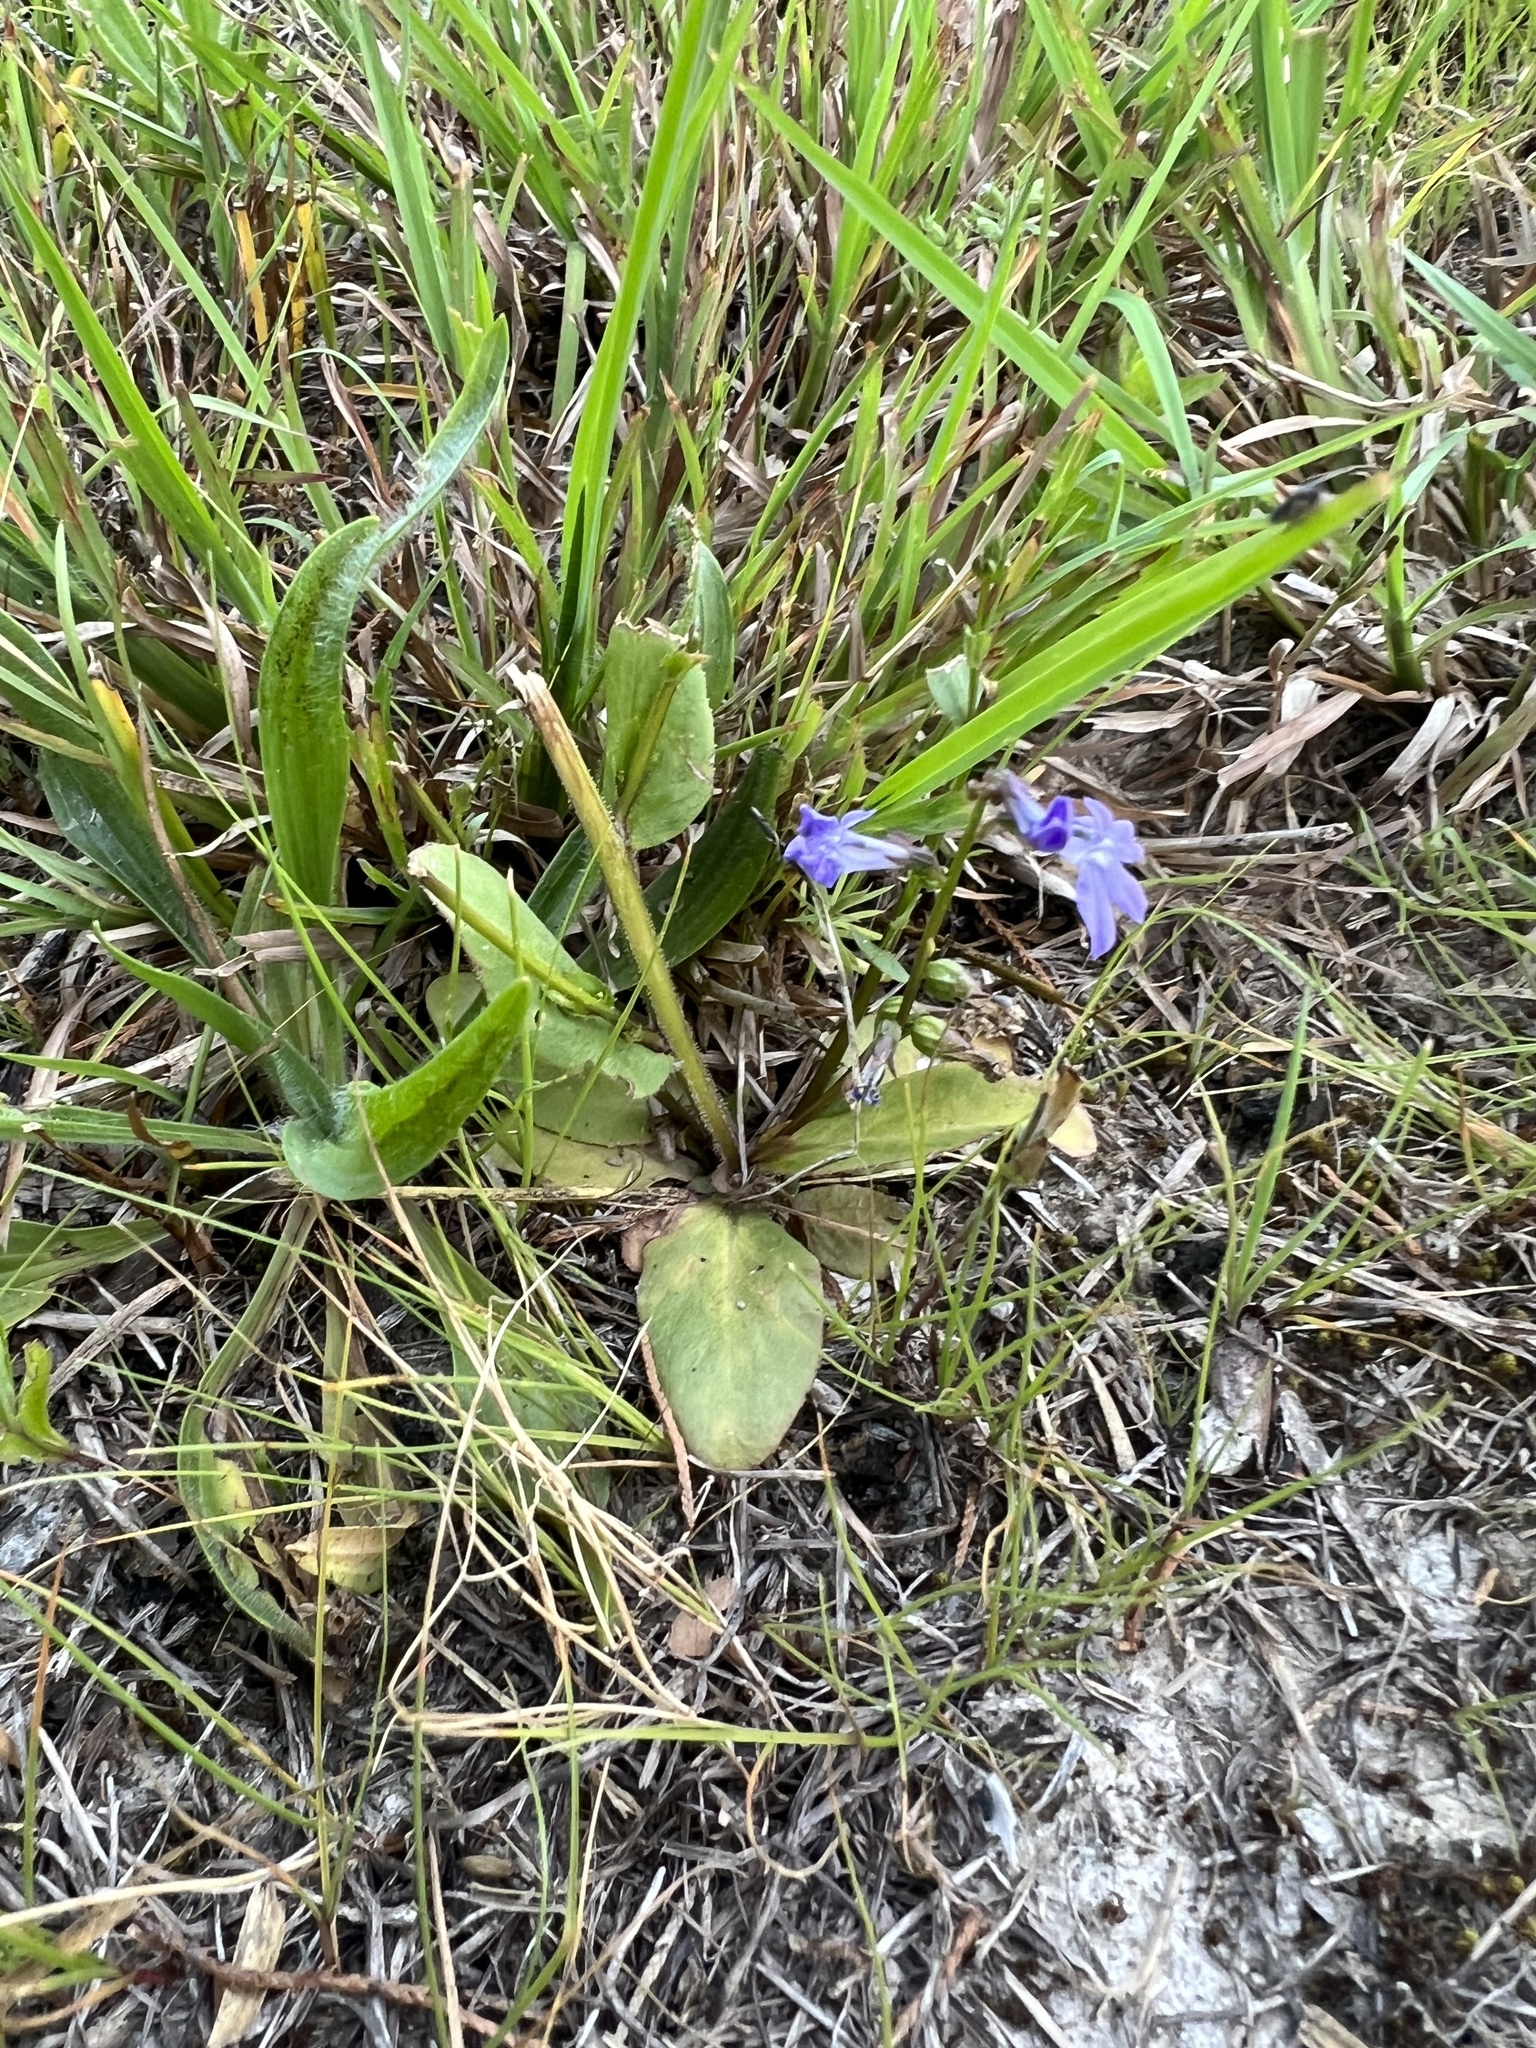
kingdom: Plantae
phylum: Tracheophyta
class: Magnoliopsida
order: Asterales
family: Campanulaceae
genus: Lobelia
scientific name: Lobelia gattingeri
